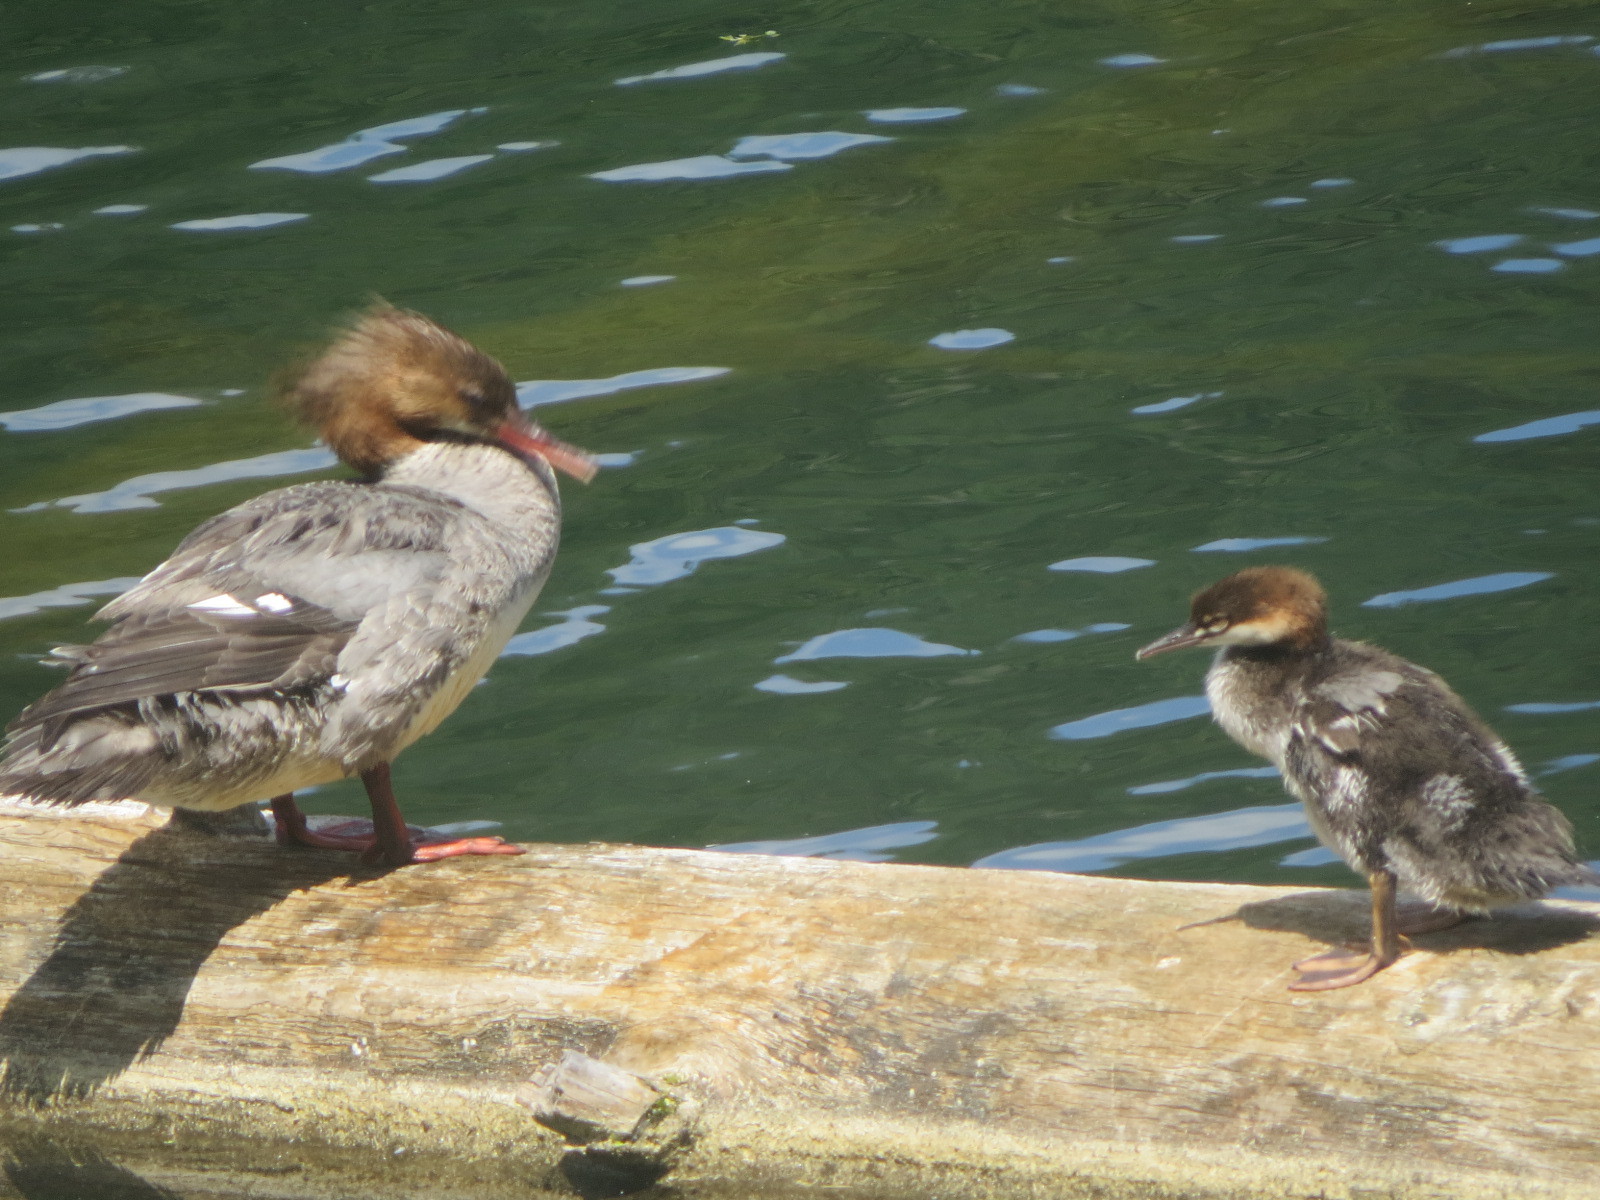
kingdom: Animalia
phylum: Chordata
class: Aves
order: Anseriformes
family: Anatidae
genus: Mergus
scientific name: Mergus merganser
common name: Common merganser
